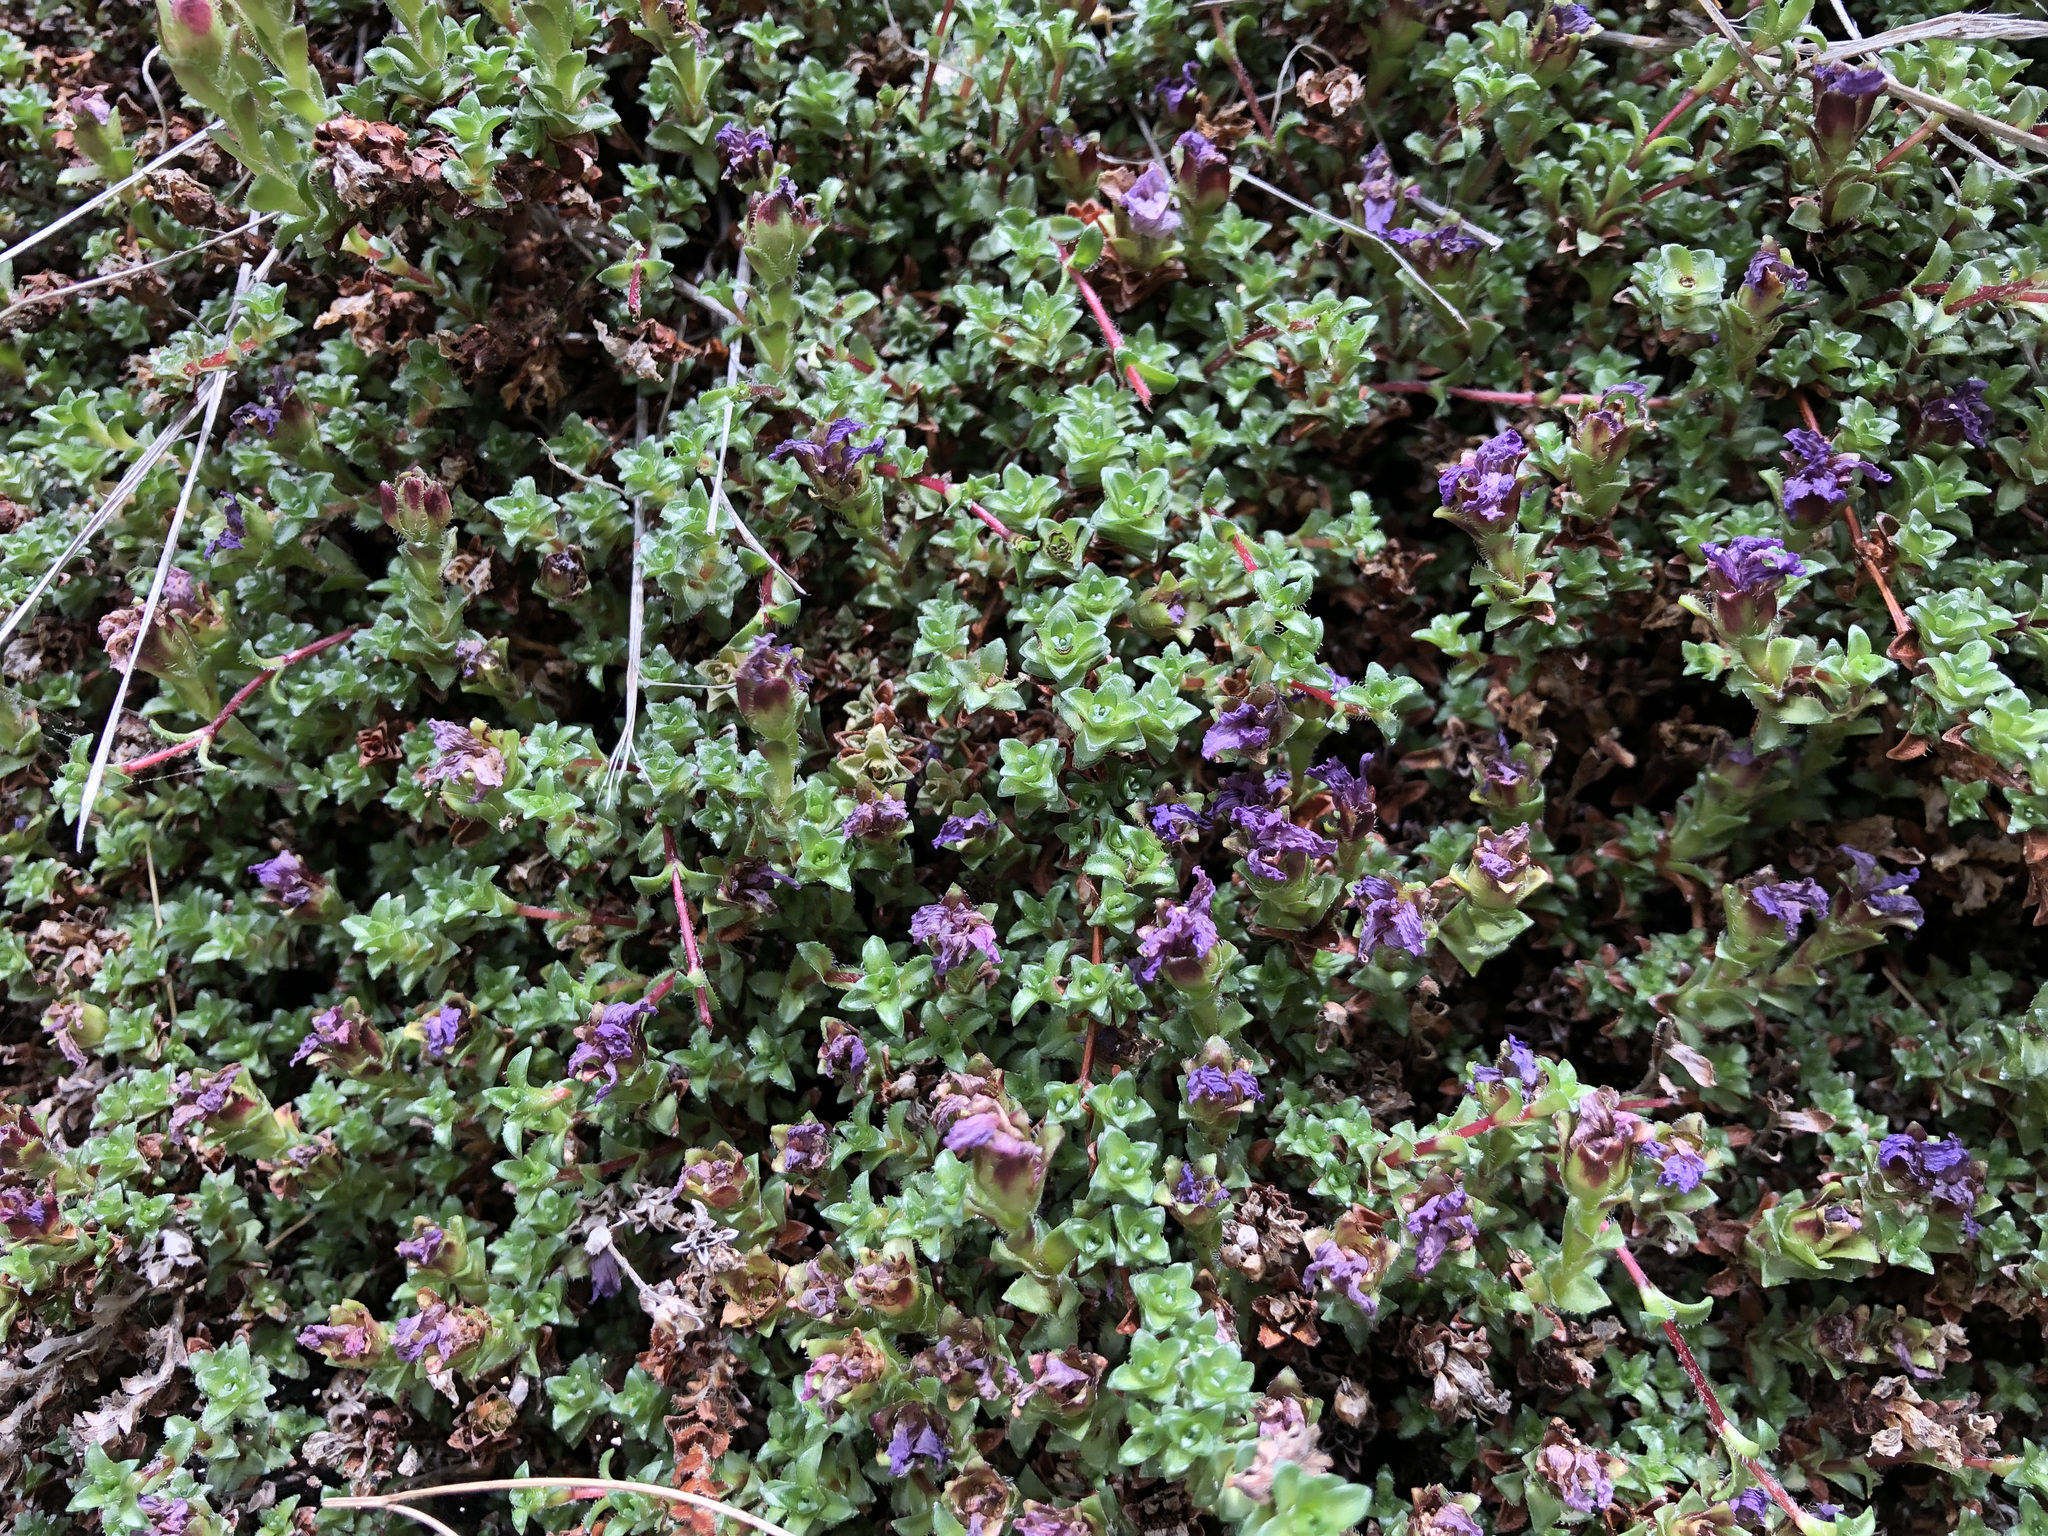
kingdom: Plantae
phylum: Tracheophyta
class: Magnoliopsida
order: Saxifragales
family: Saxifragaceae
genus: Saxifraga
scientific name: Saxifraga oppositifolia
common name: Purple saxifrage
